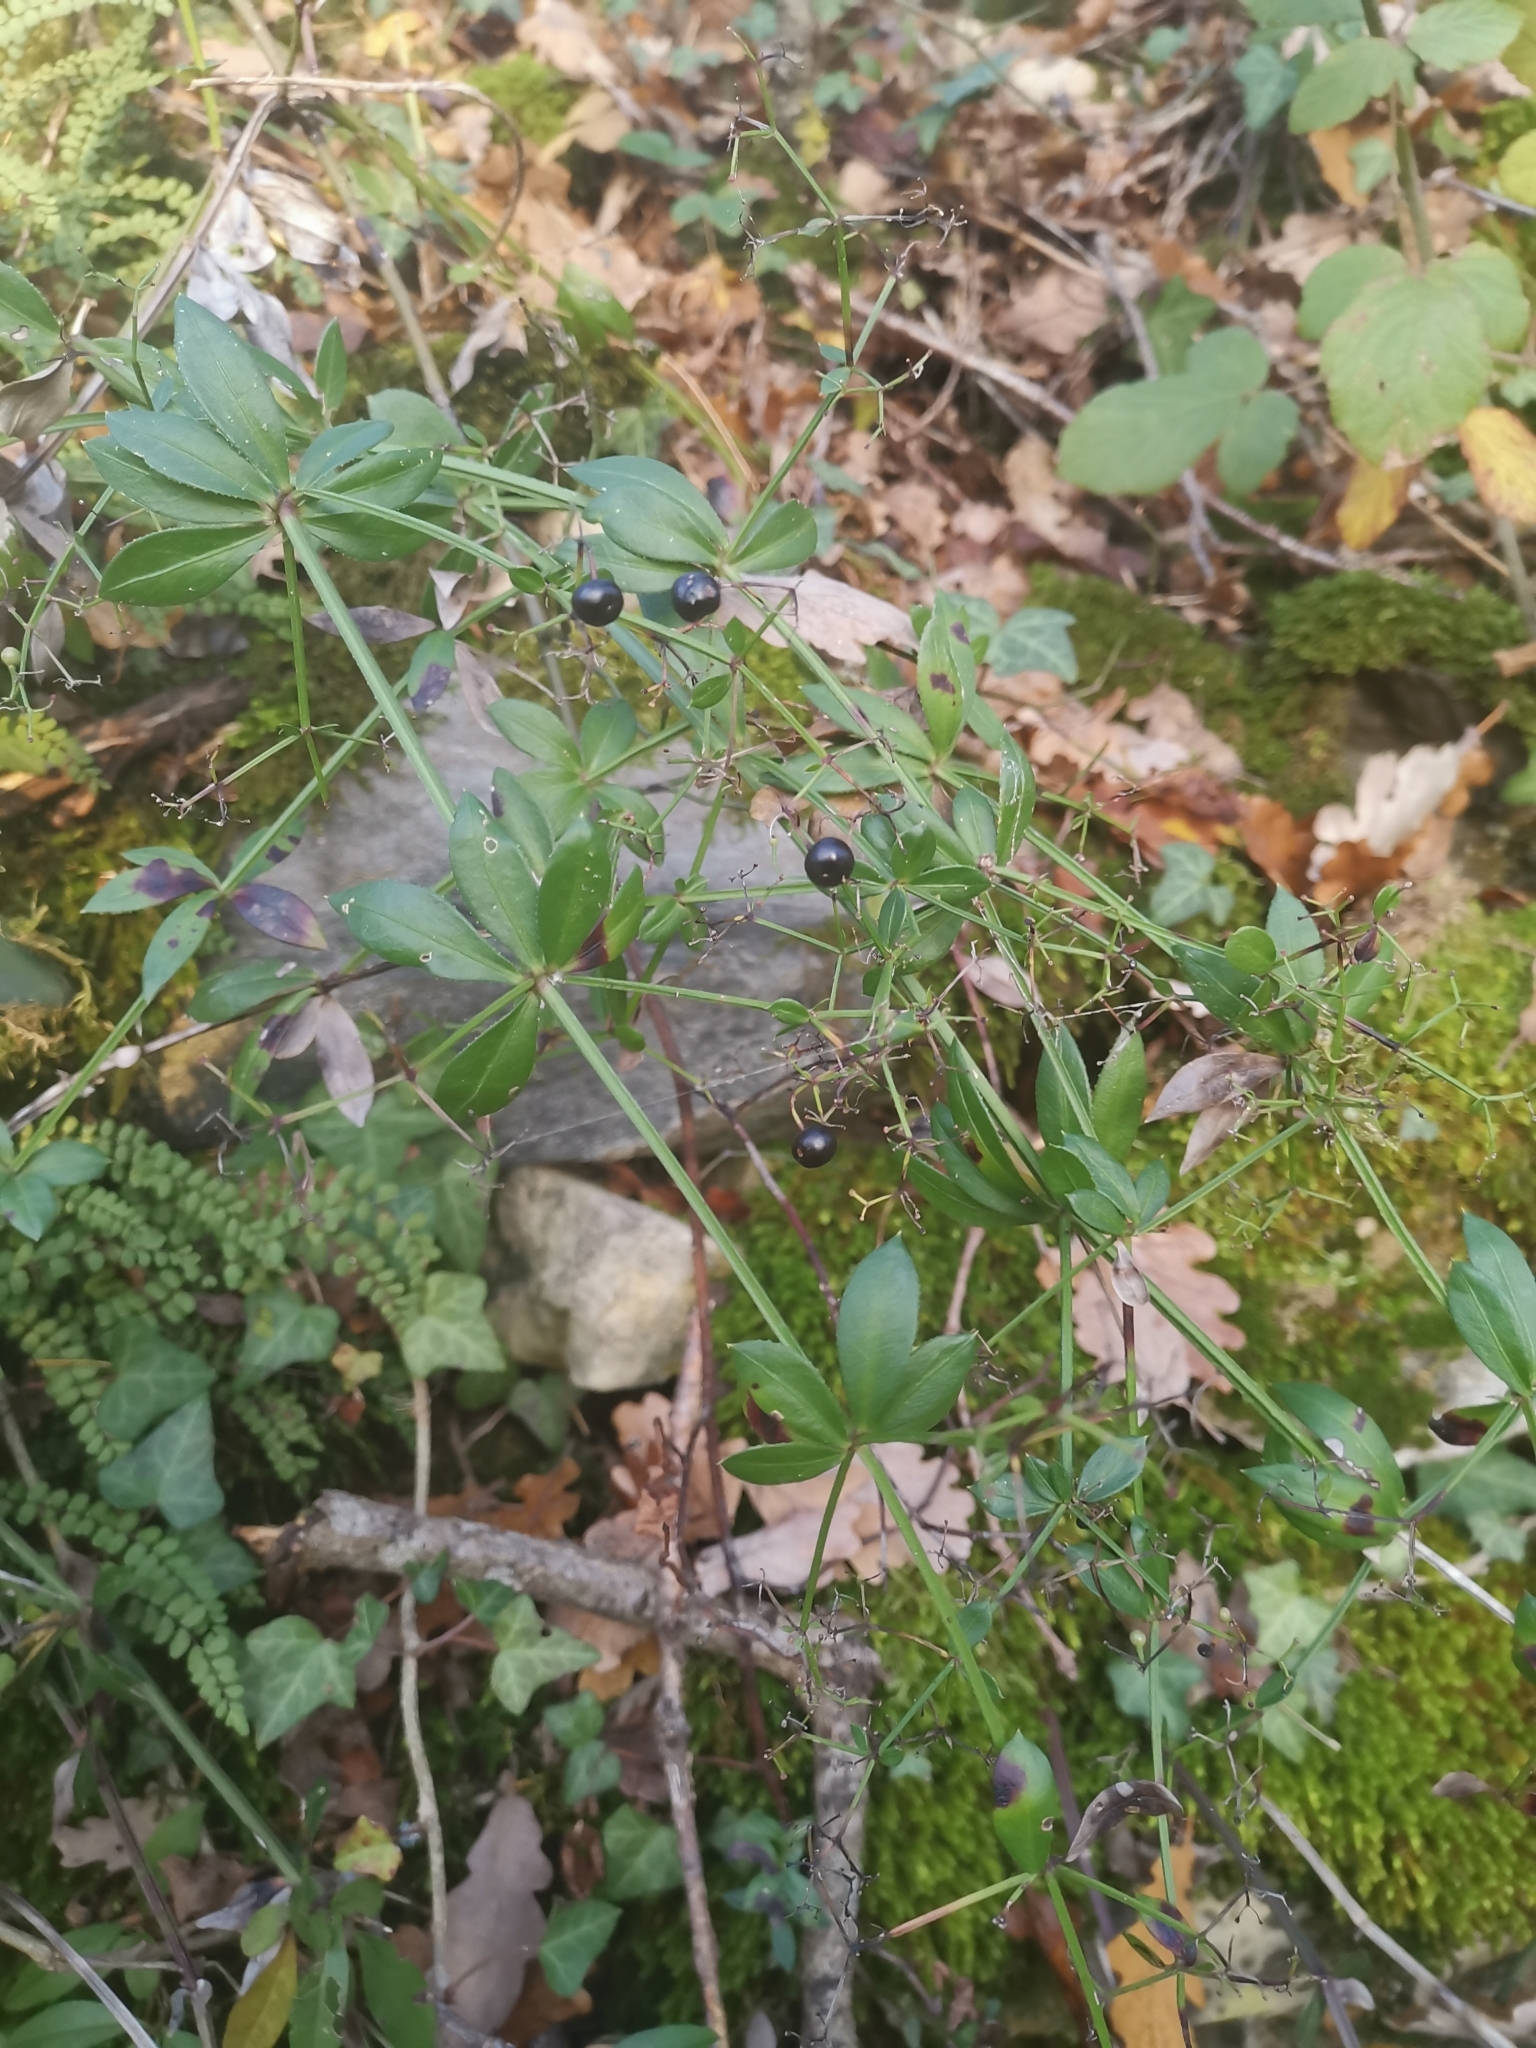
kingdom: Plantae
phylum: Tracheophyta
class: Magnoliopsida
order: Gentianales
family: Rubiaceae
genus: Rubia
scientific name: Rubia peregrina
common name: Wild madder
